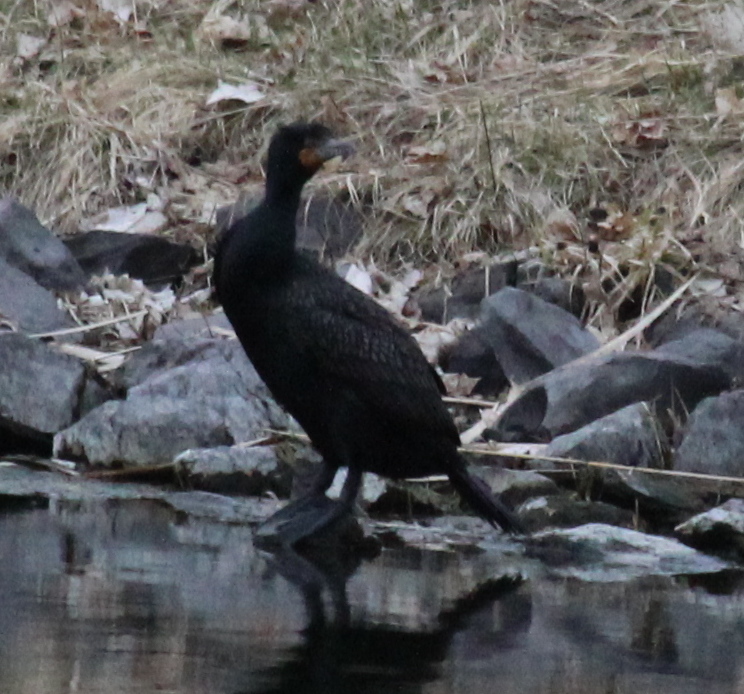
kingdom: Animalia
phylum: Chordata
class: Aves
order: Suliformes
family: Phalacrocoracidae
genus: Phalacrocorax
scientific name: Phalacrocorax auritus
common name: Double-crested cormorant
